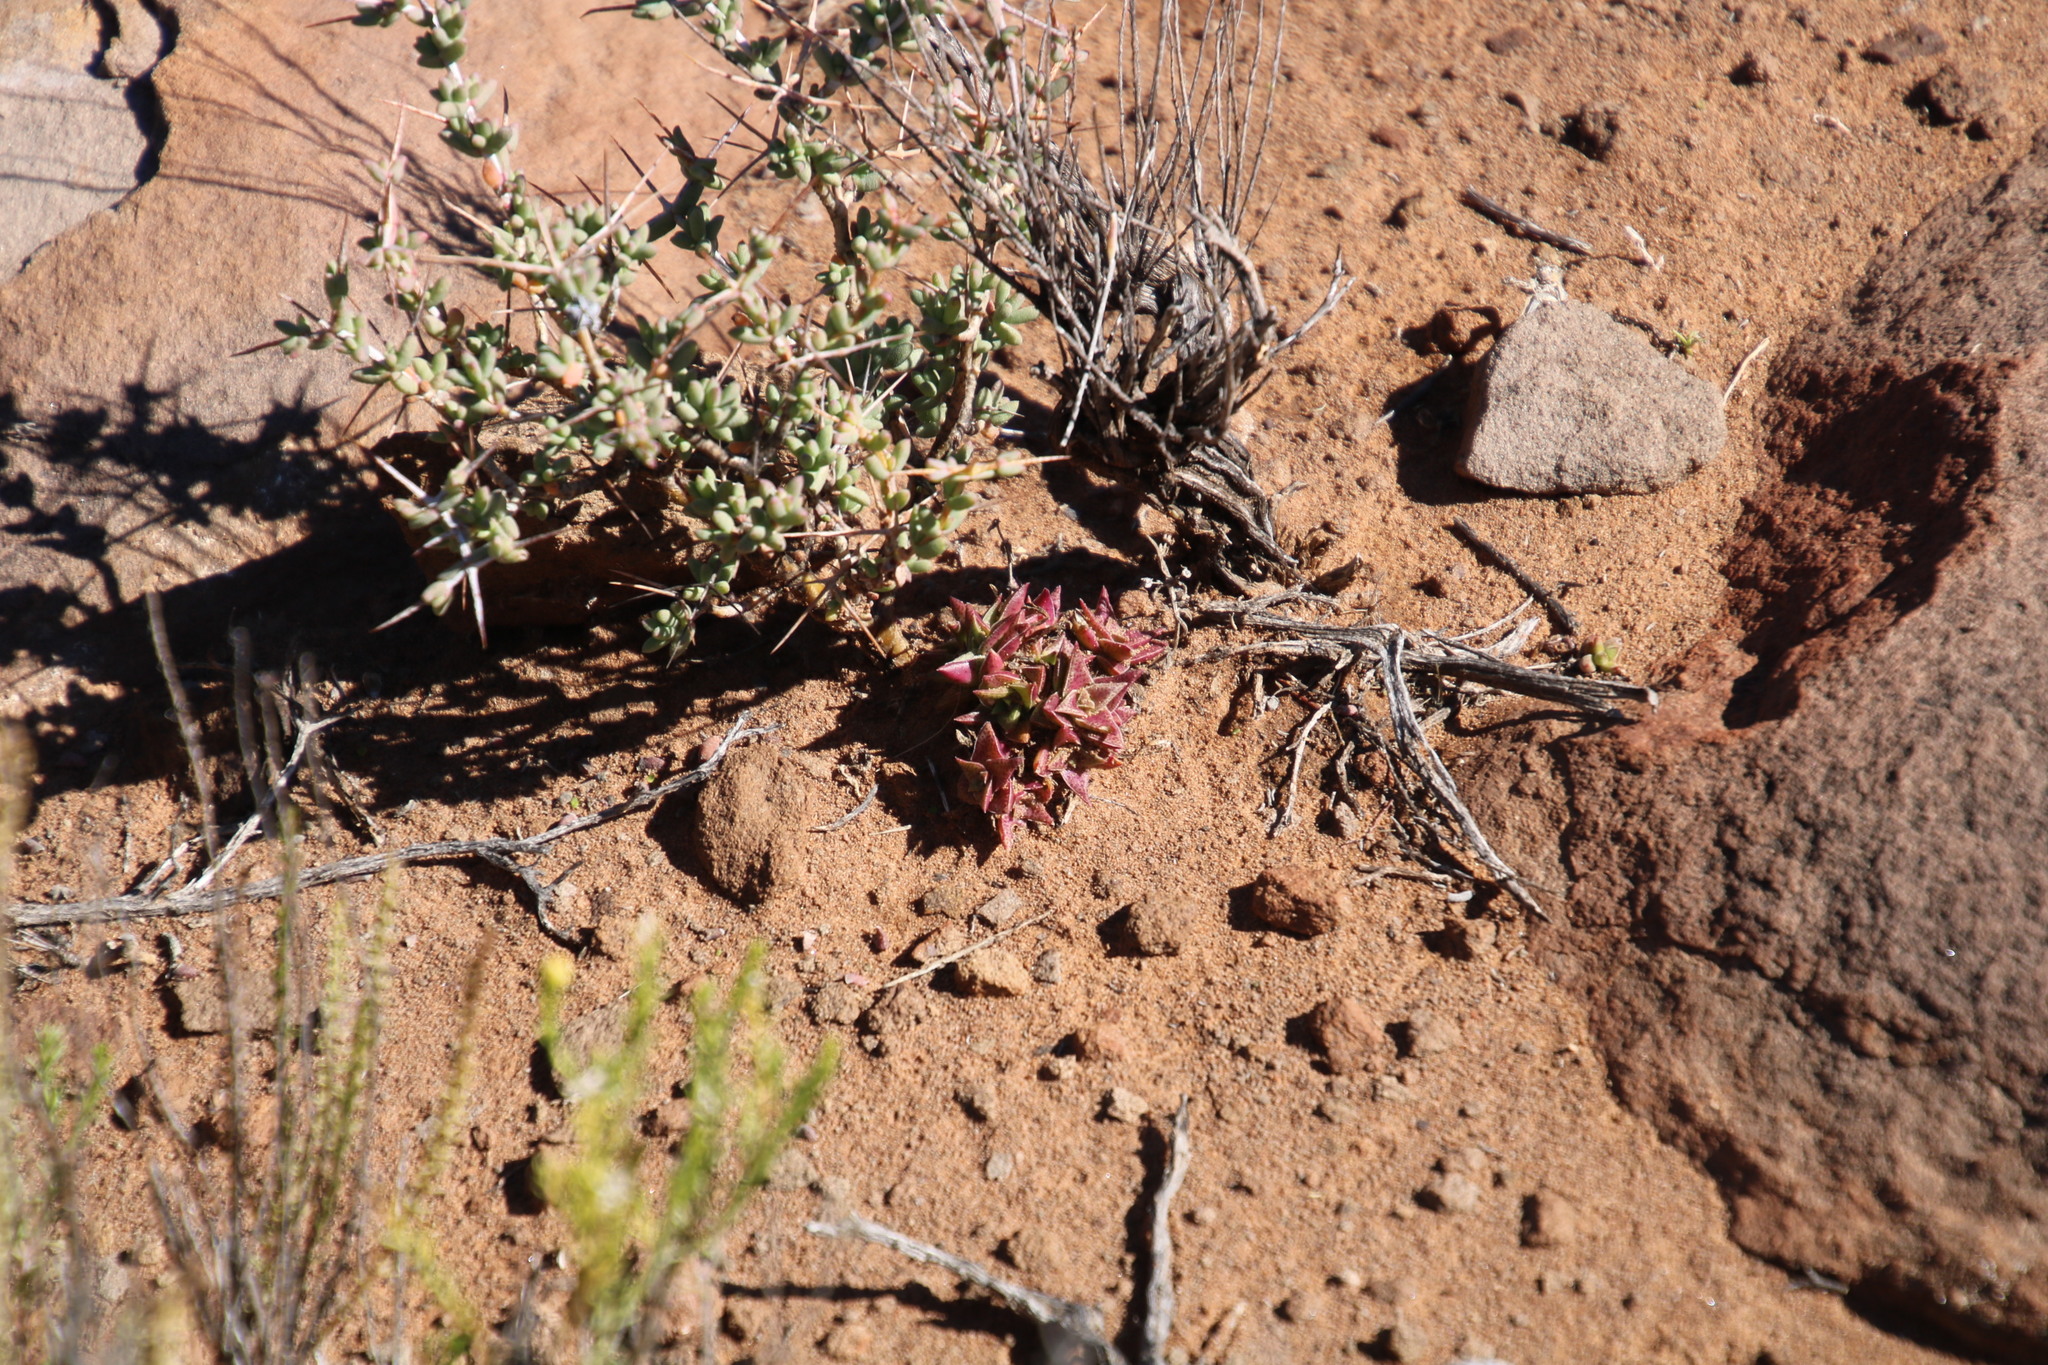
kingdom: Plantae
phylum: Tracheophyta
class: Magnoliopsida
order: Saxifragales
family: Crassulaceae
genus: Crassula
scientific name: Crassula capitella
